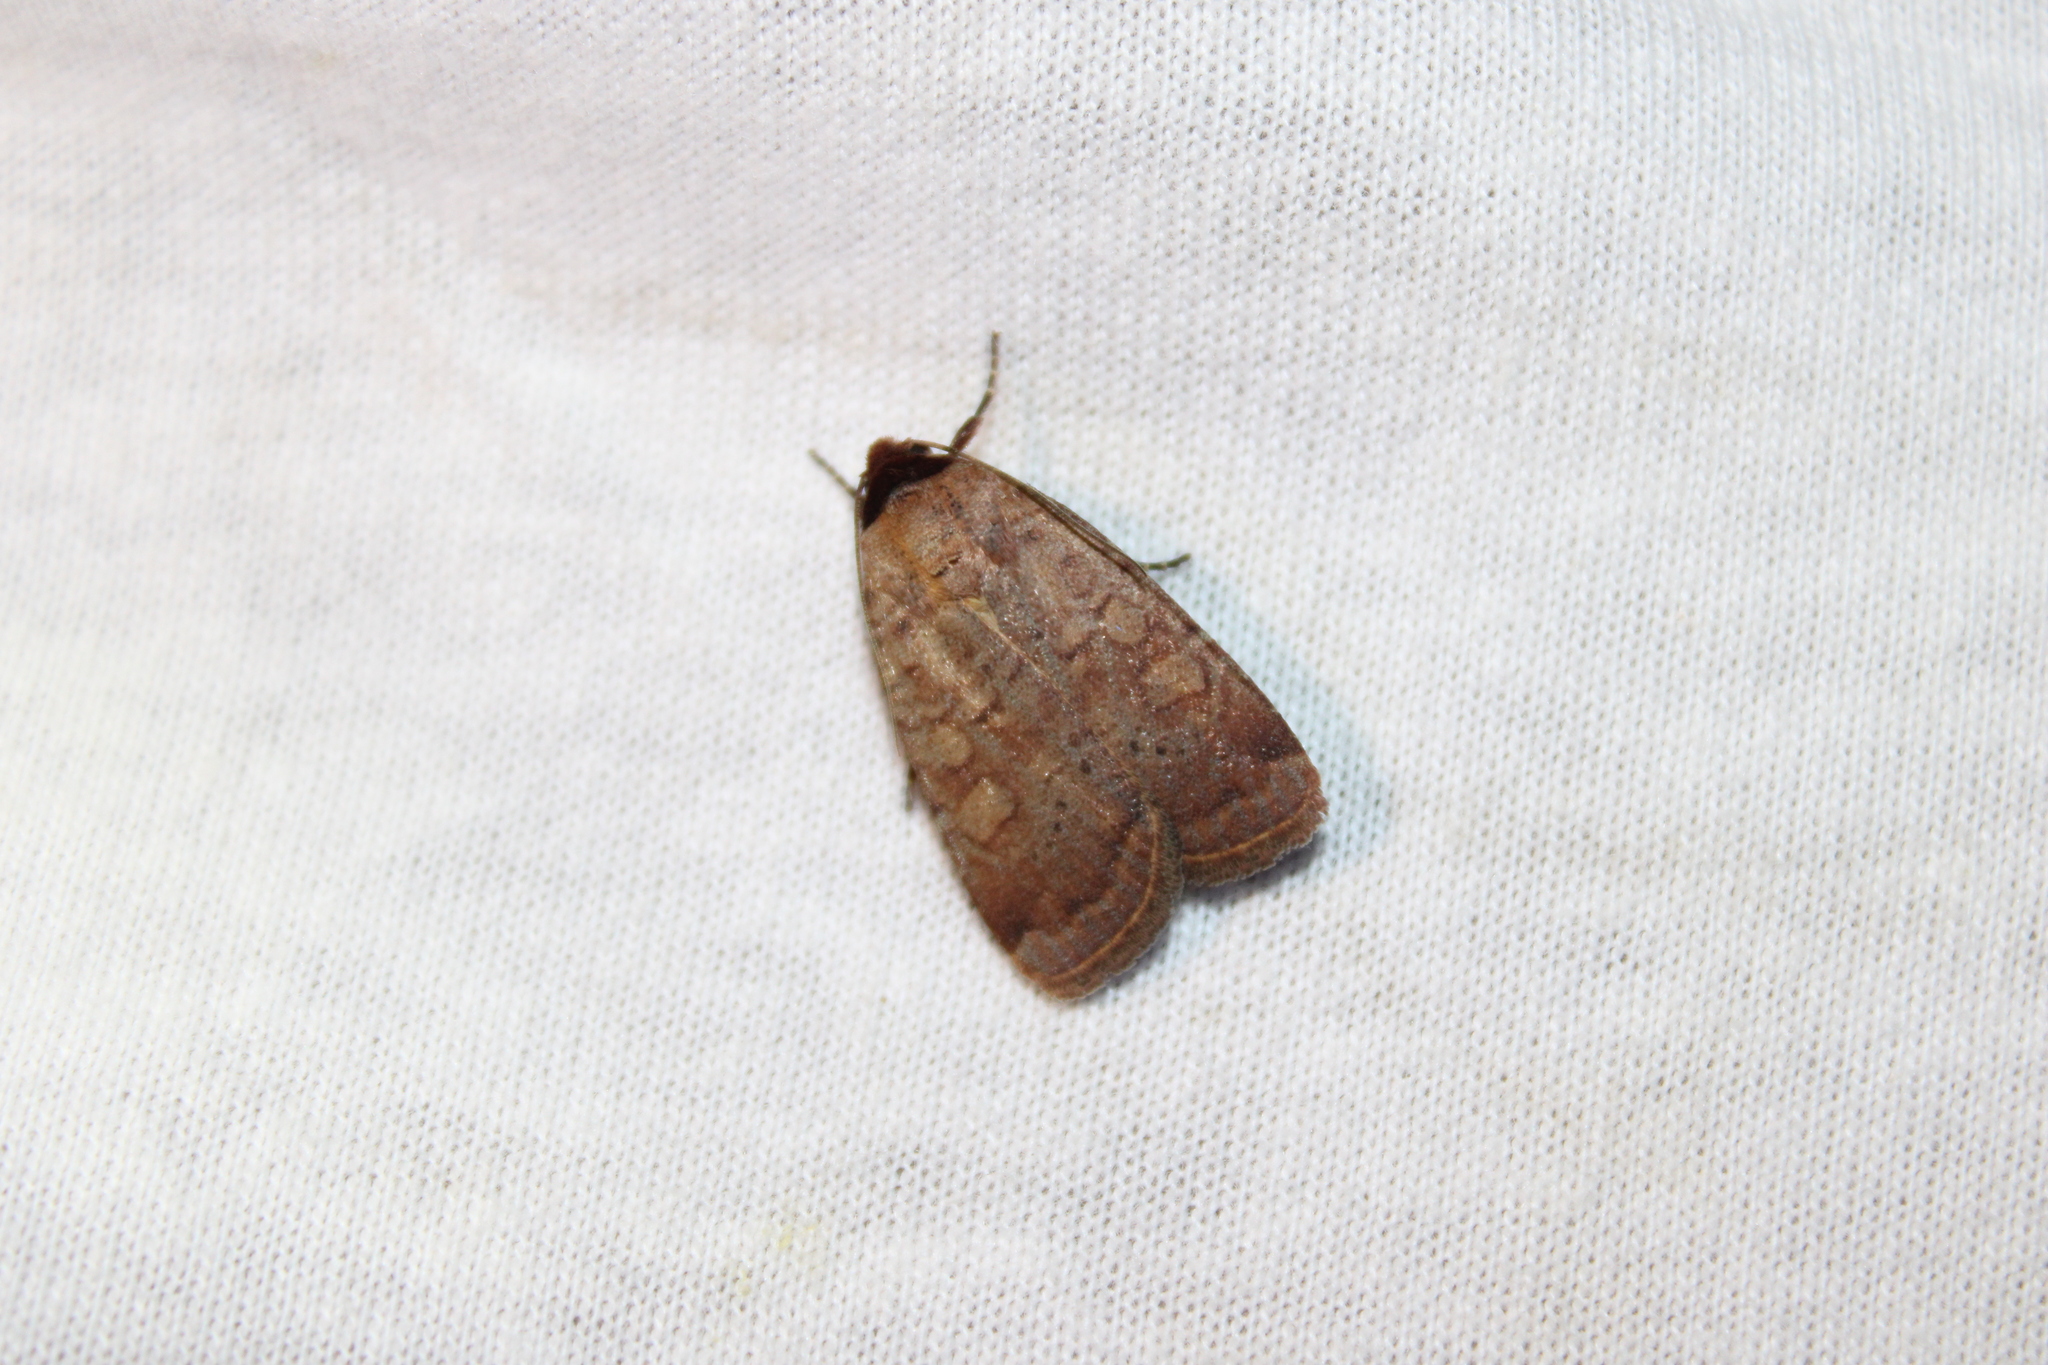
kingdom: Animalia
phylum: Arthropoda
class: Insecta
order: Lepidoptera
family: Noctuidae
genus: Protolampra
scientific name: Protolampra brunneicollis
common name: Brown-collared dart
